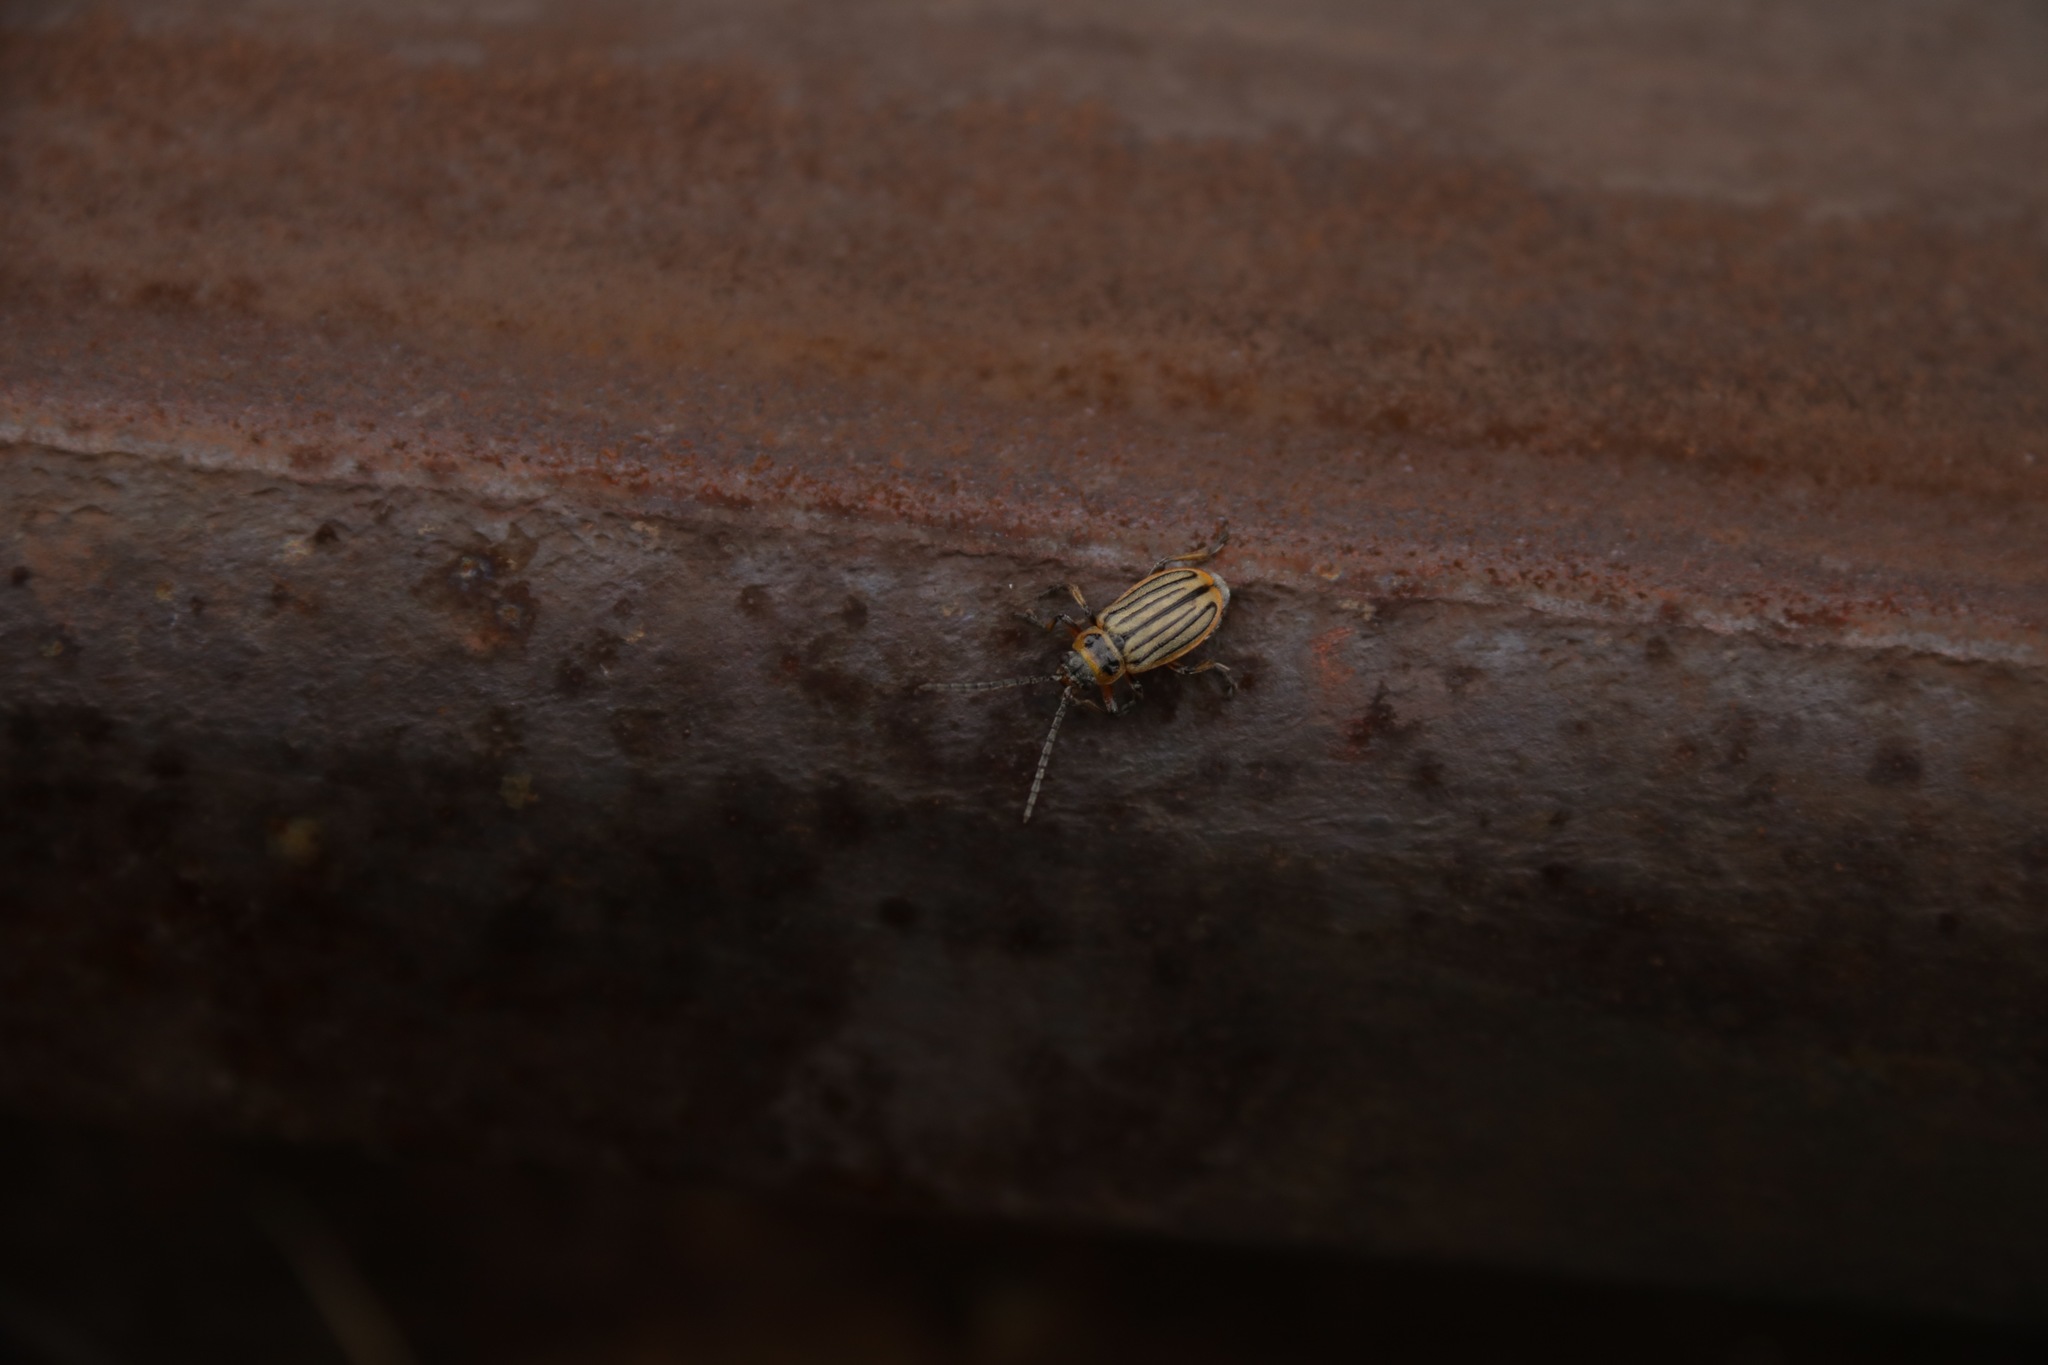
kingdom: Animalia
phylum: Arthropoda
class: Insecta
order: Coleoptera
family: Chrysomelidae
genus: Pallasiola
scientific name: Pallasiola absinthii
